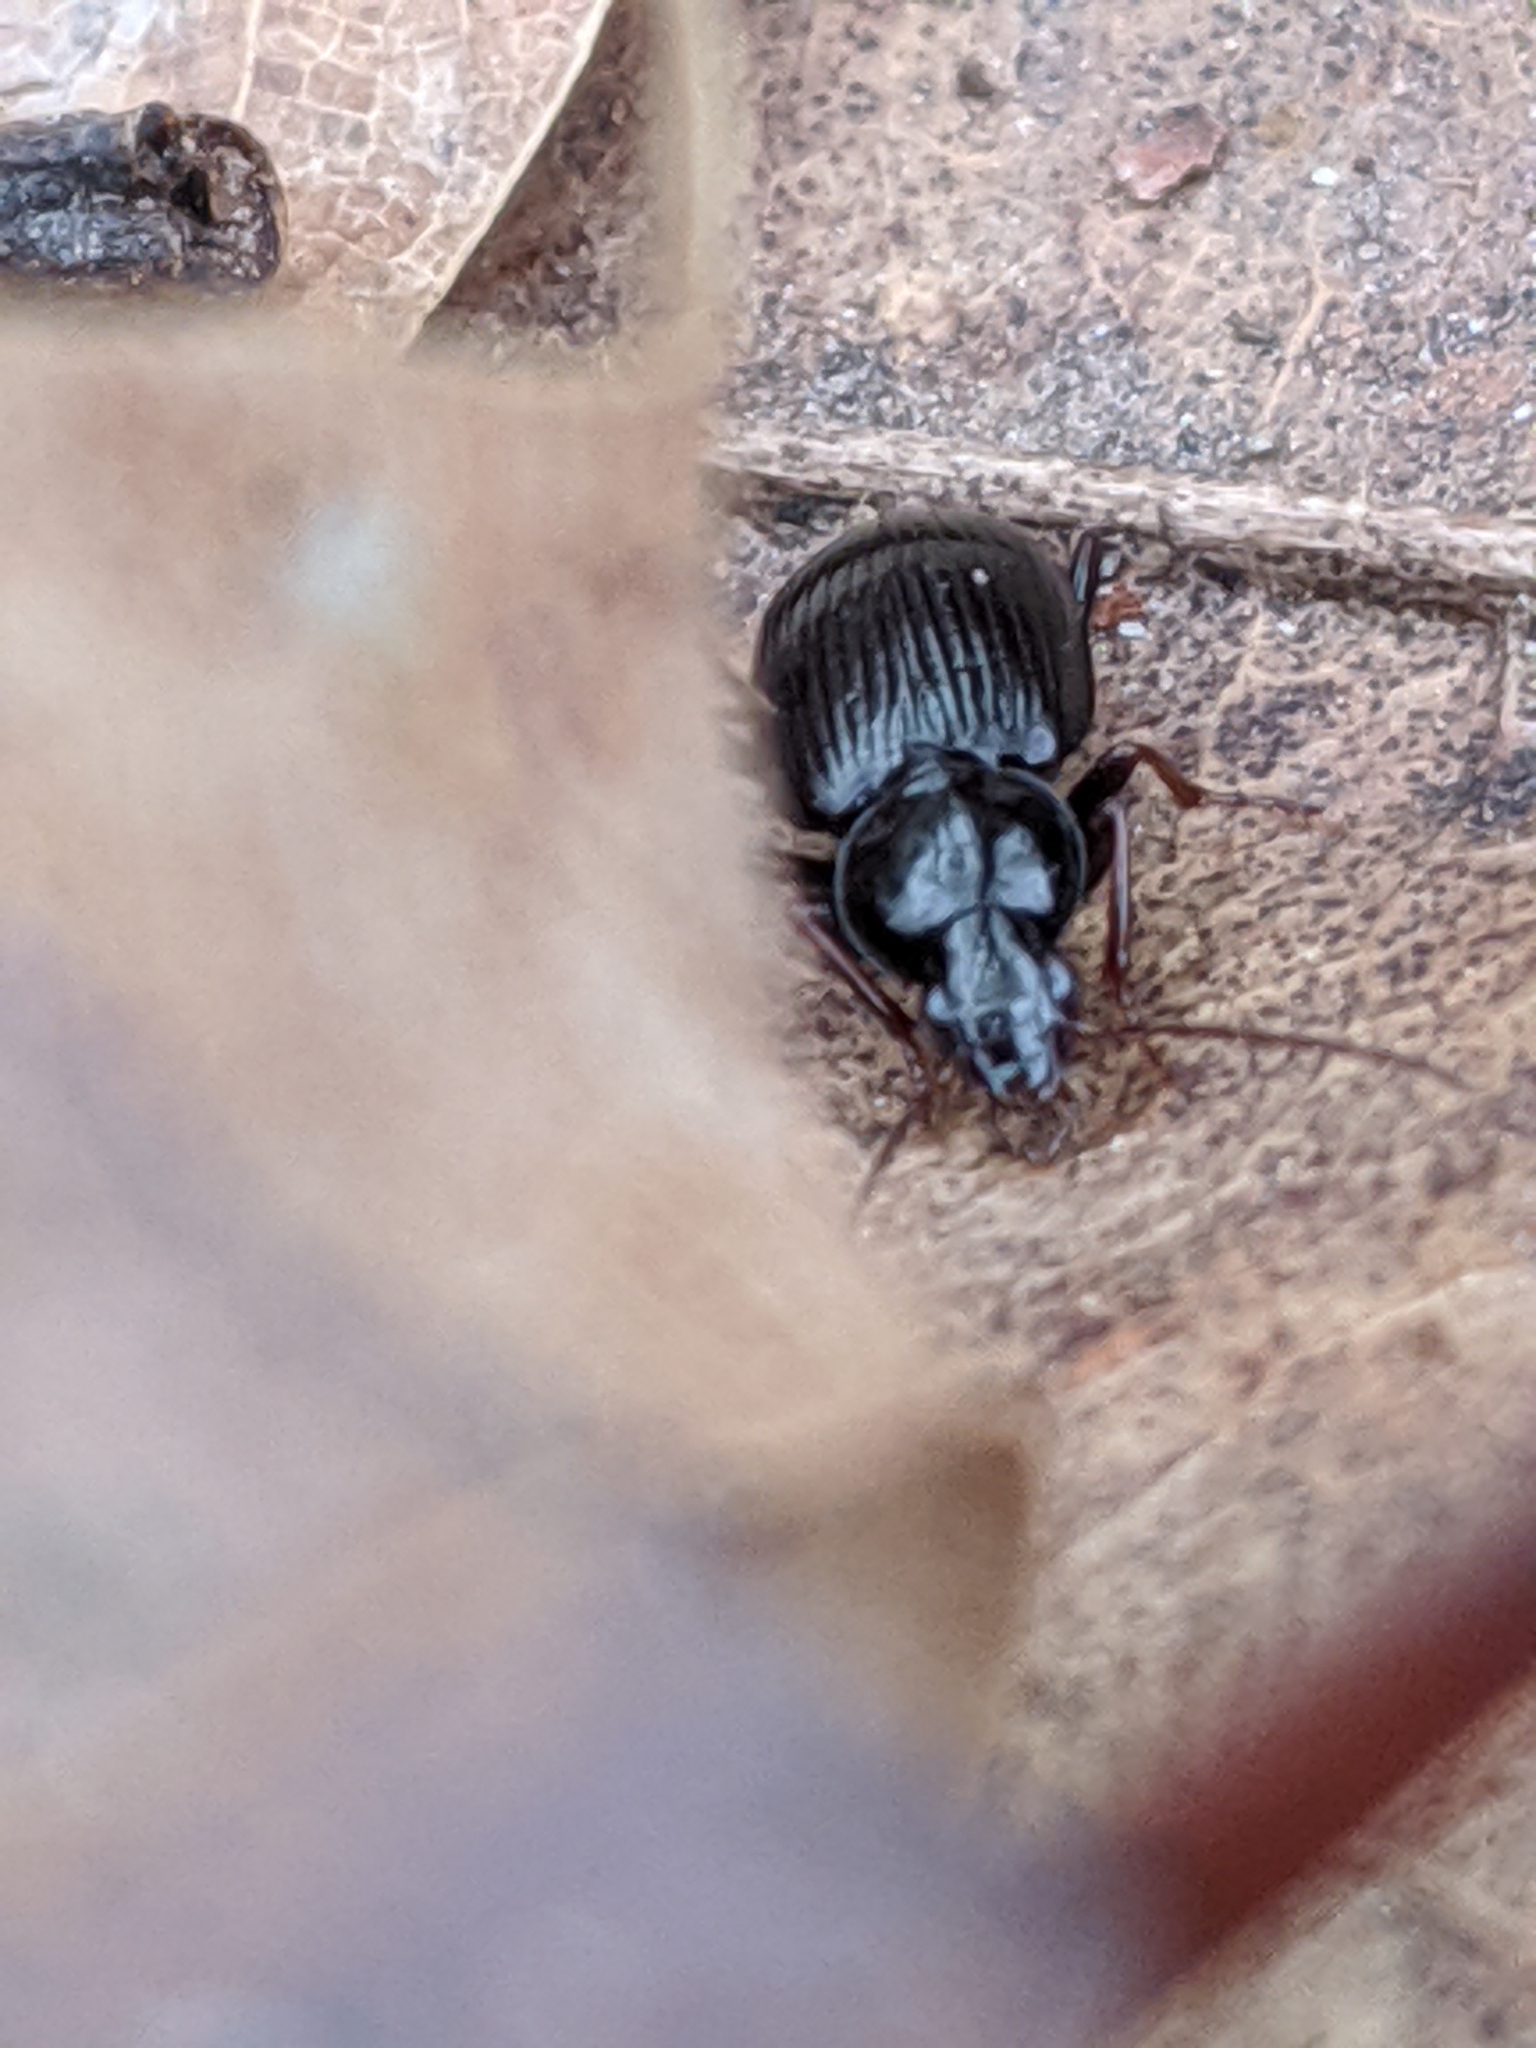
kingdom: Animalia
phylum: Arthropoda
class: Insecta
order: Coleoptera
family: Carabidae
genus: Agonum
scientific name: Agonum punctiforme
